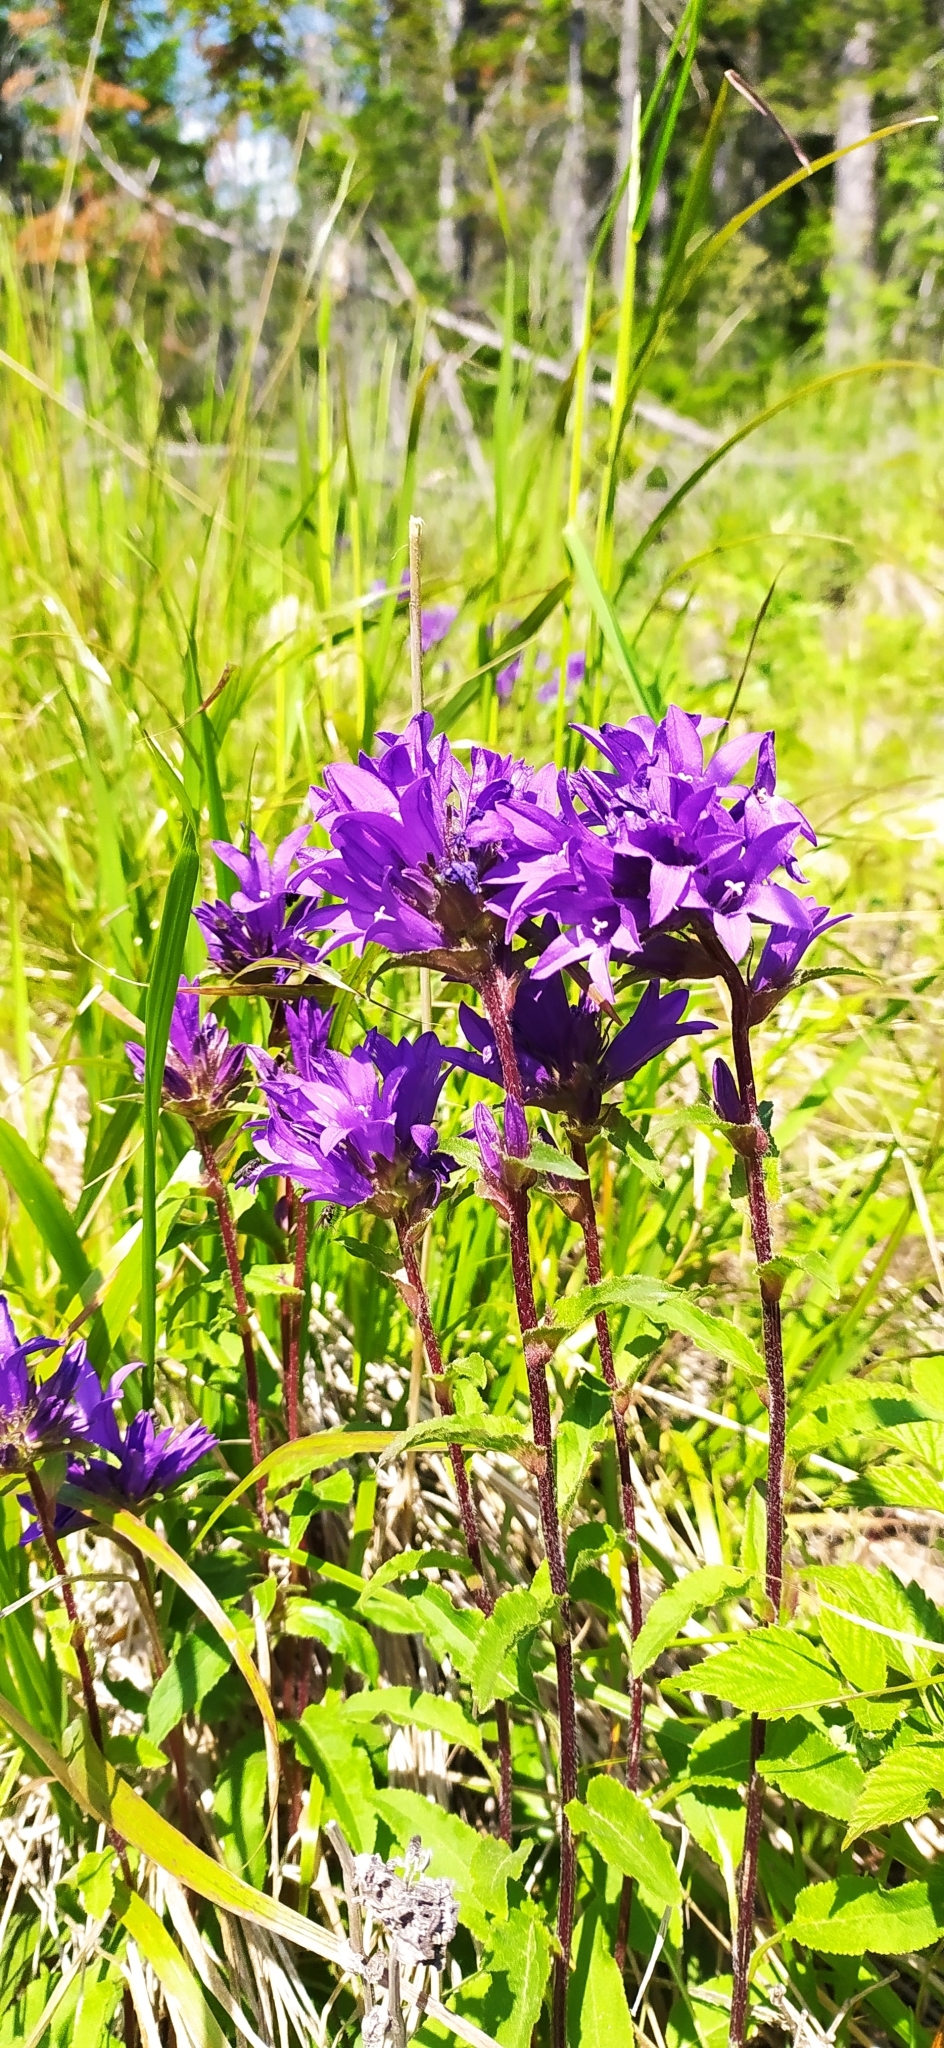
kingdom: Plantae
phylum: Tracheophyta
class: Magnoliopsida
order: Asterales
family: Campanulaceae
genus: Campanula
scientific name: Campanula glomerata
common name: Clustered bellflower
